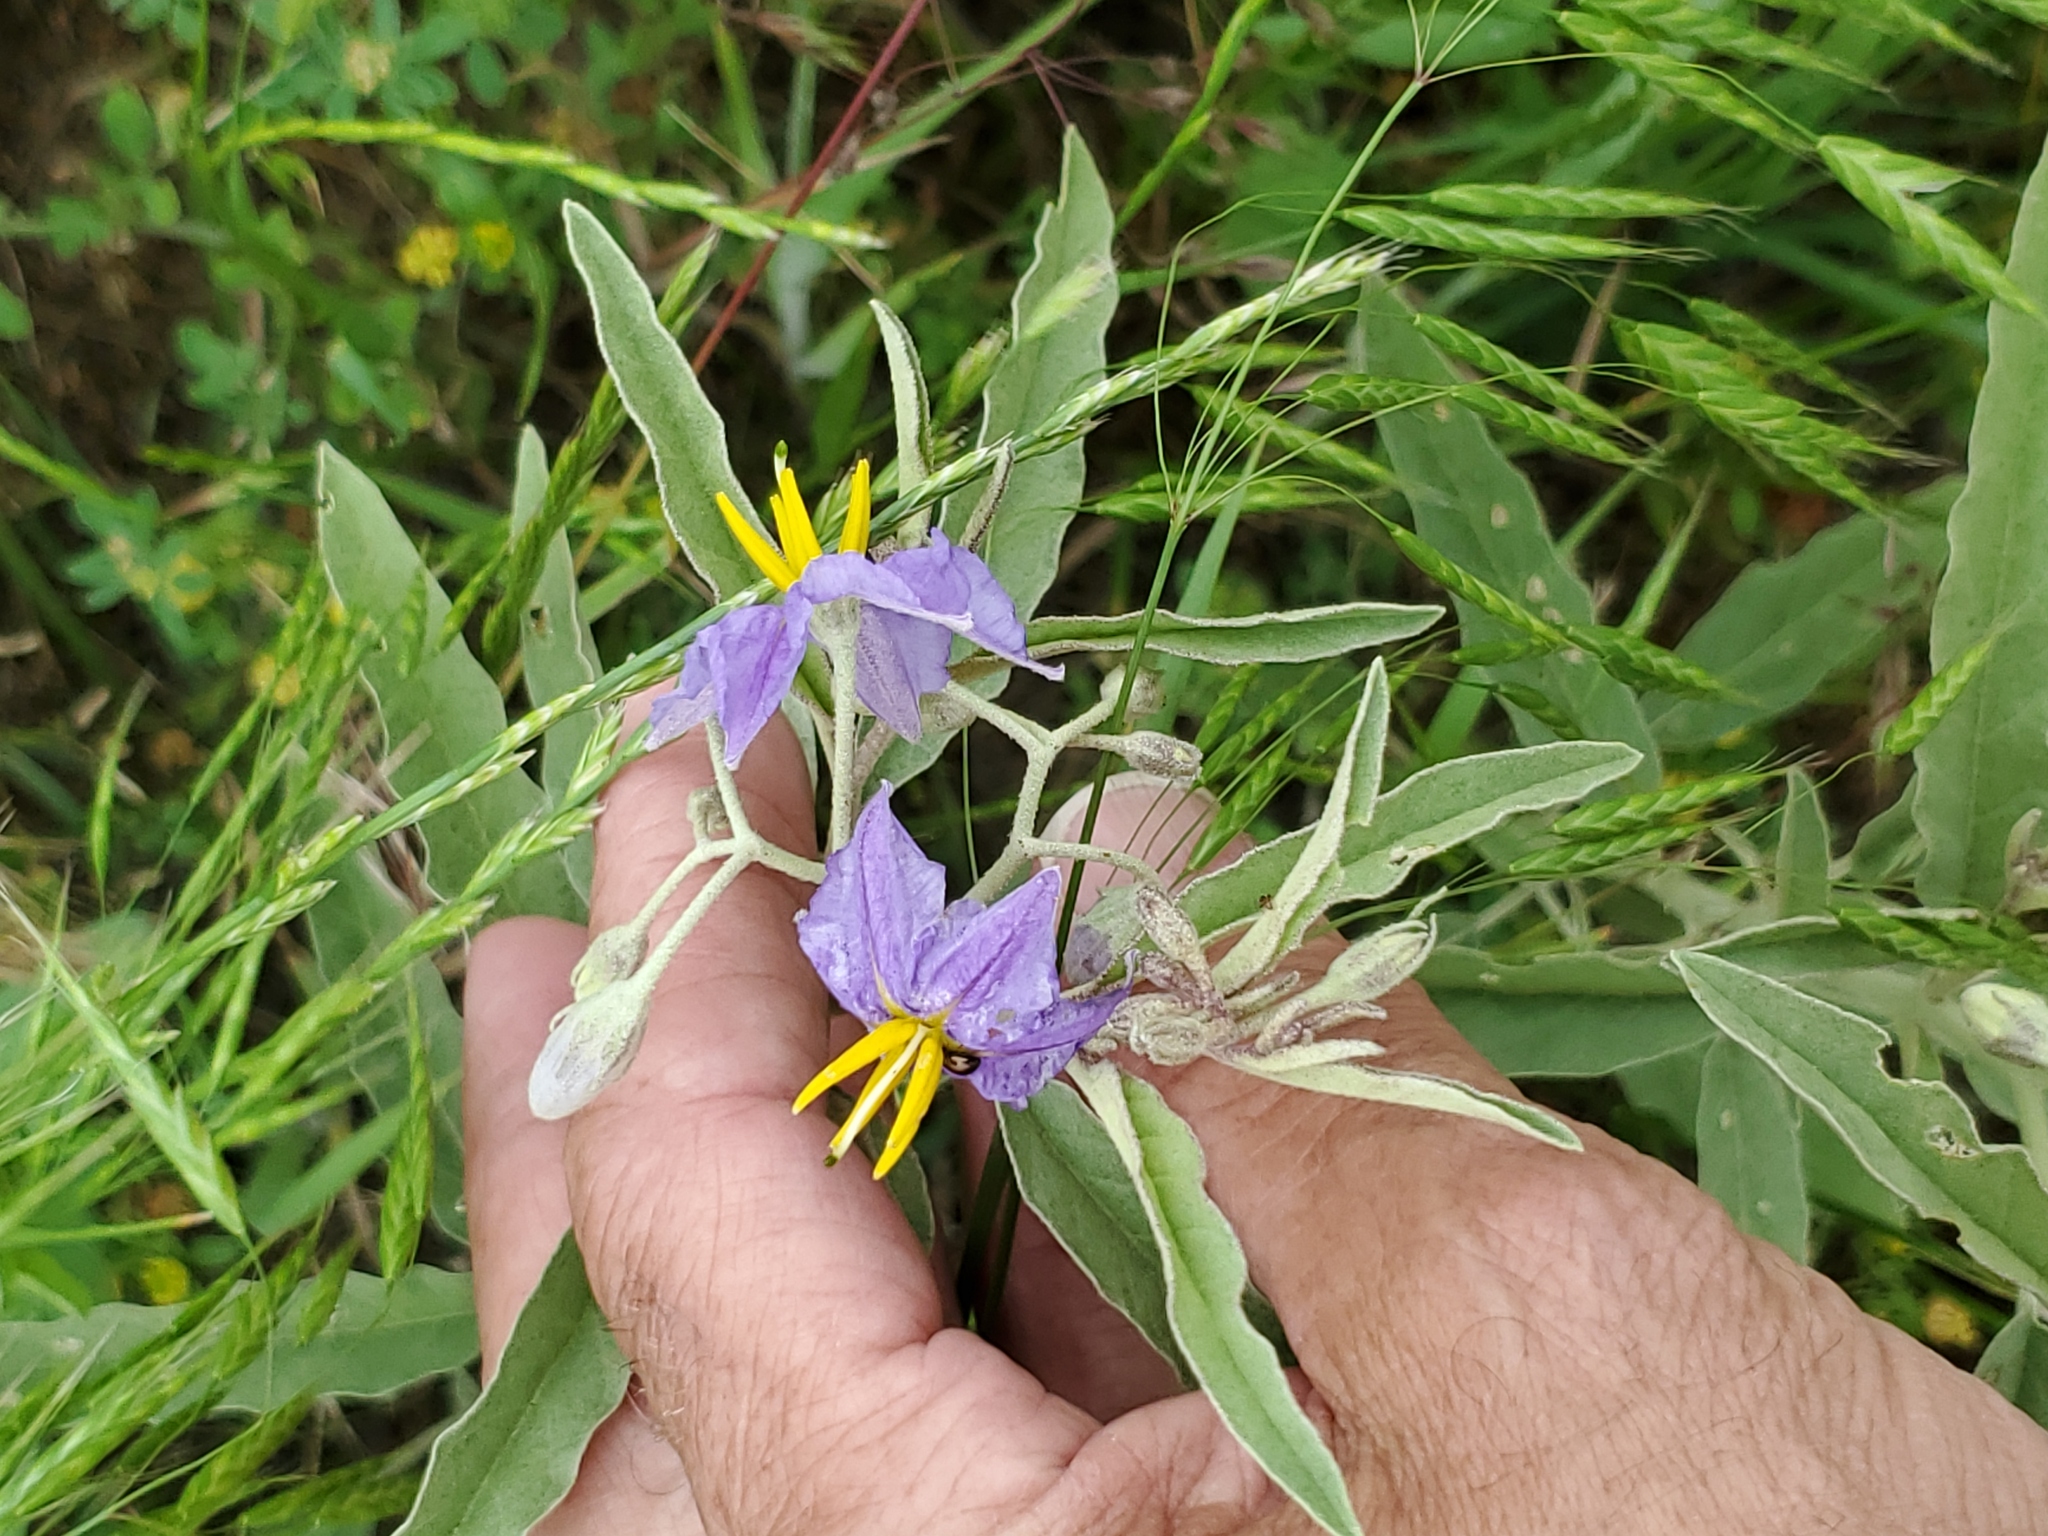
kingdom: Plantae
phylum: Tracheophyta
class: Magnoliopsida
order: Solanales
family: Solanaceae
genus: Solanum
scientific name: Solanum elaeagnifolium
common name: Silverleaf nightshade
